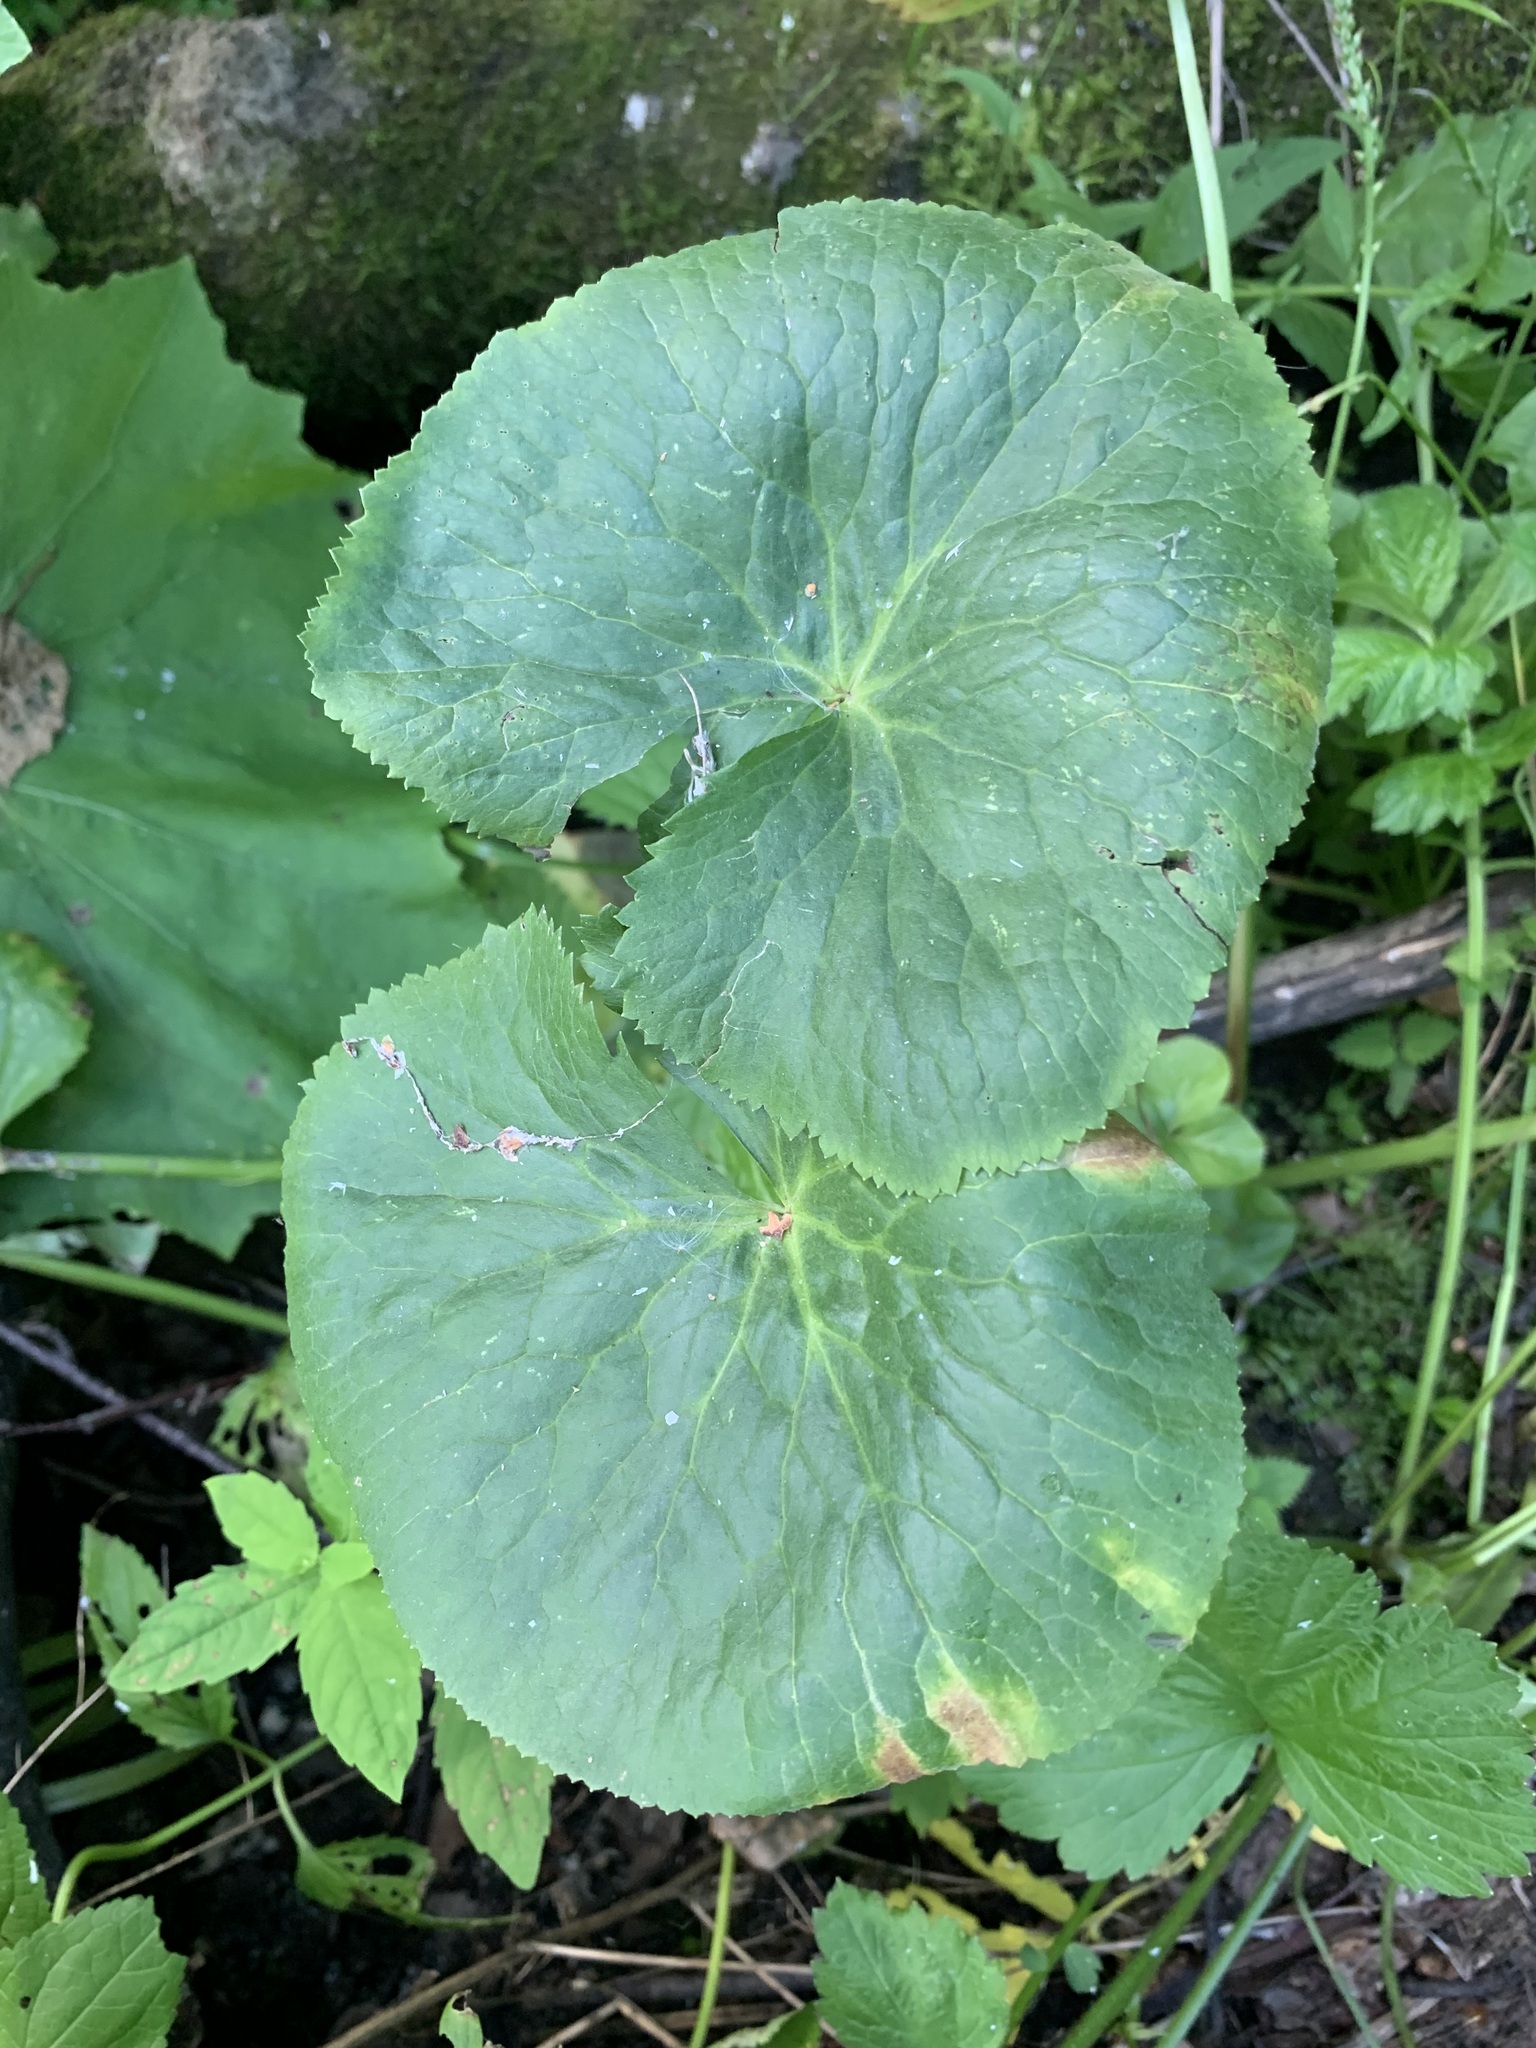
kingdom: Plantae
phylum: Tracheophyta
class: Magnoliopsida
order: Ranunculales
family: Ranunculaceae
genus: Caltha
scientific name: Caltha palustris
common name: Marsh marigold
